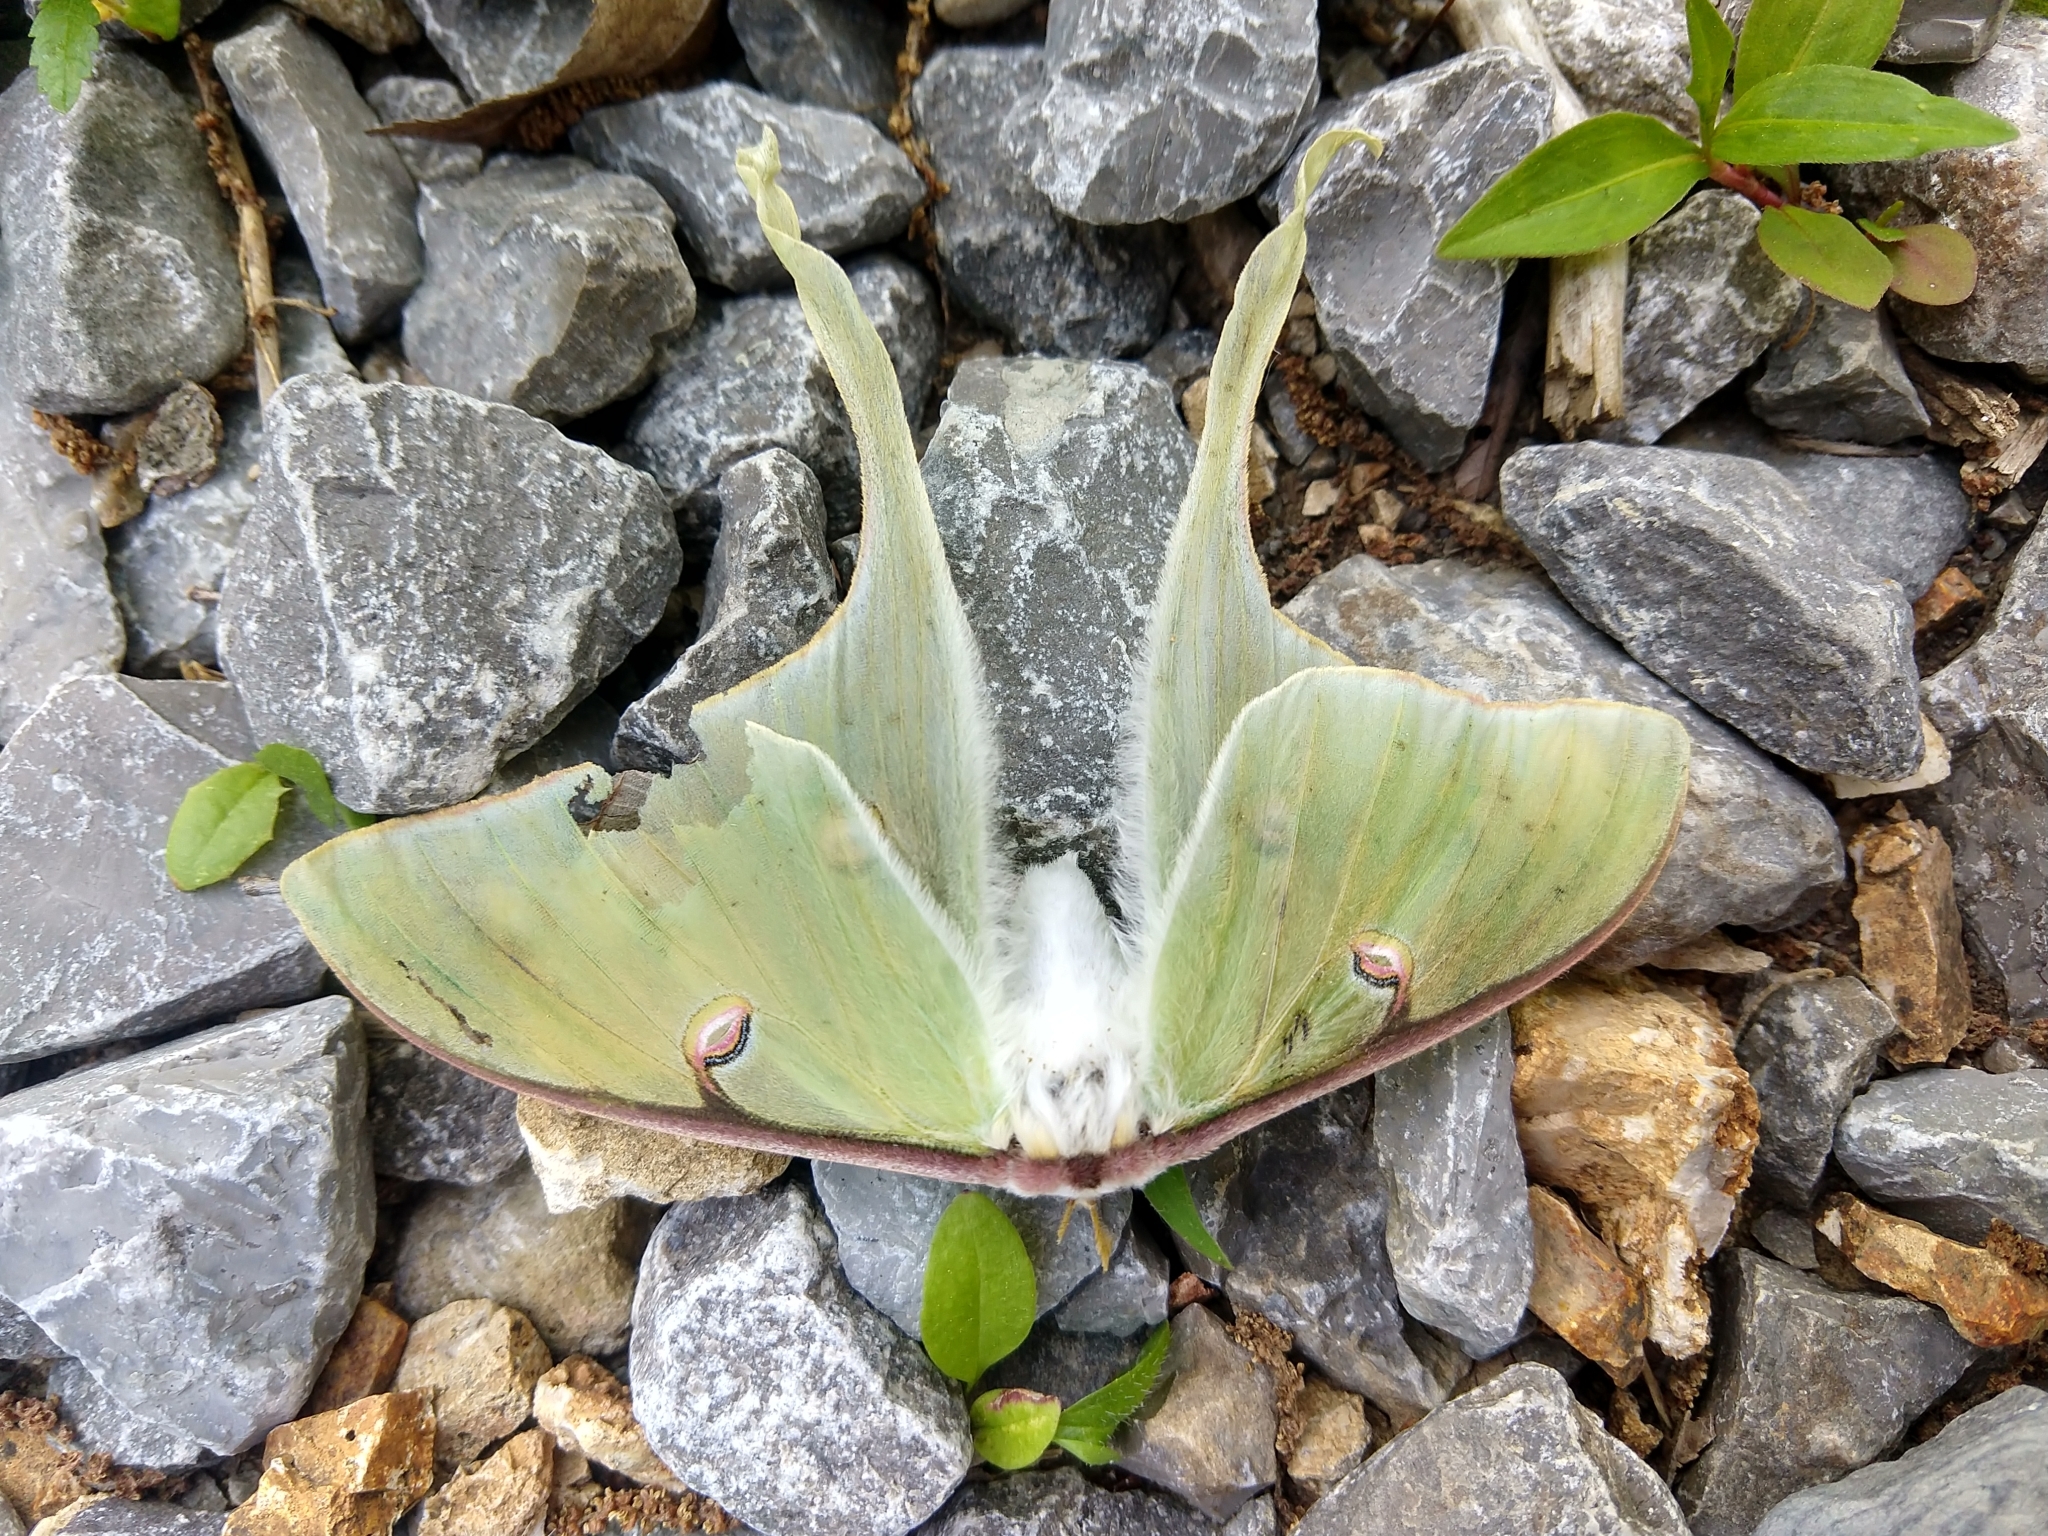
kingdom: Animalia
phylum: Arthropoda
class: Insecta
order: Lepidoptera
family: Saturniidae
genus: Actias
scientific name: Actias luna
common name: Luna moth
